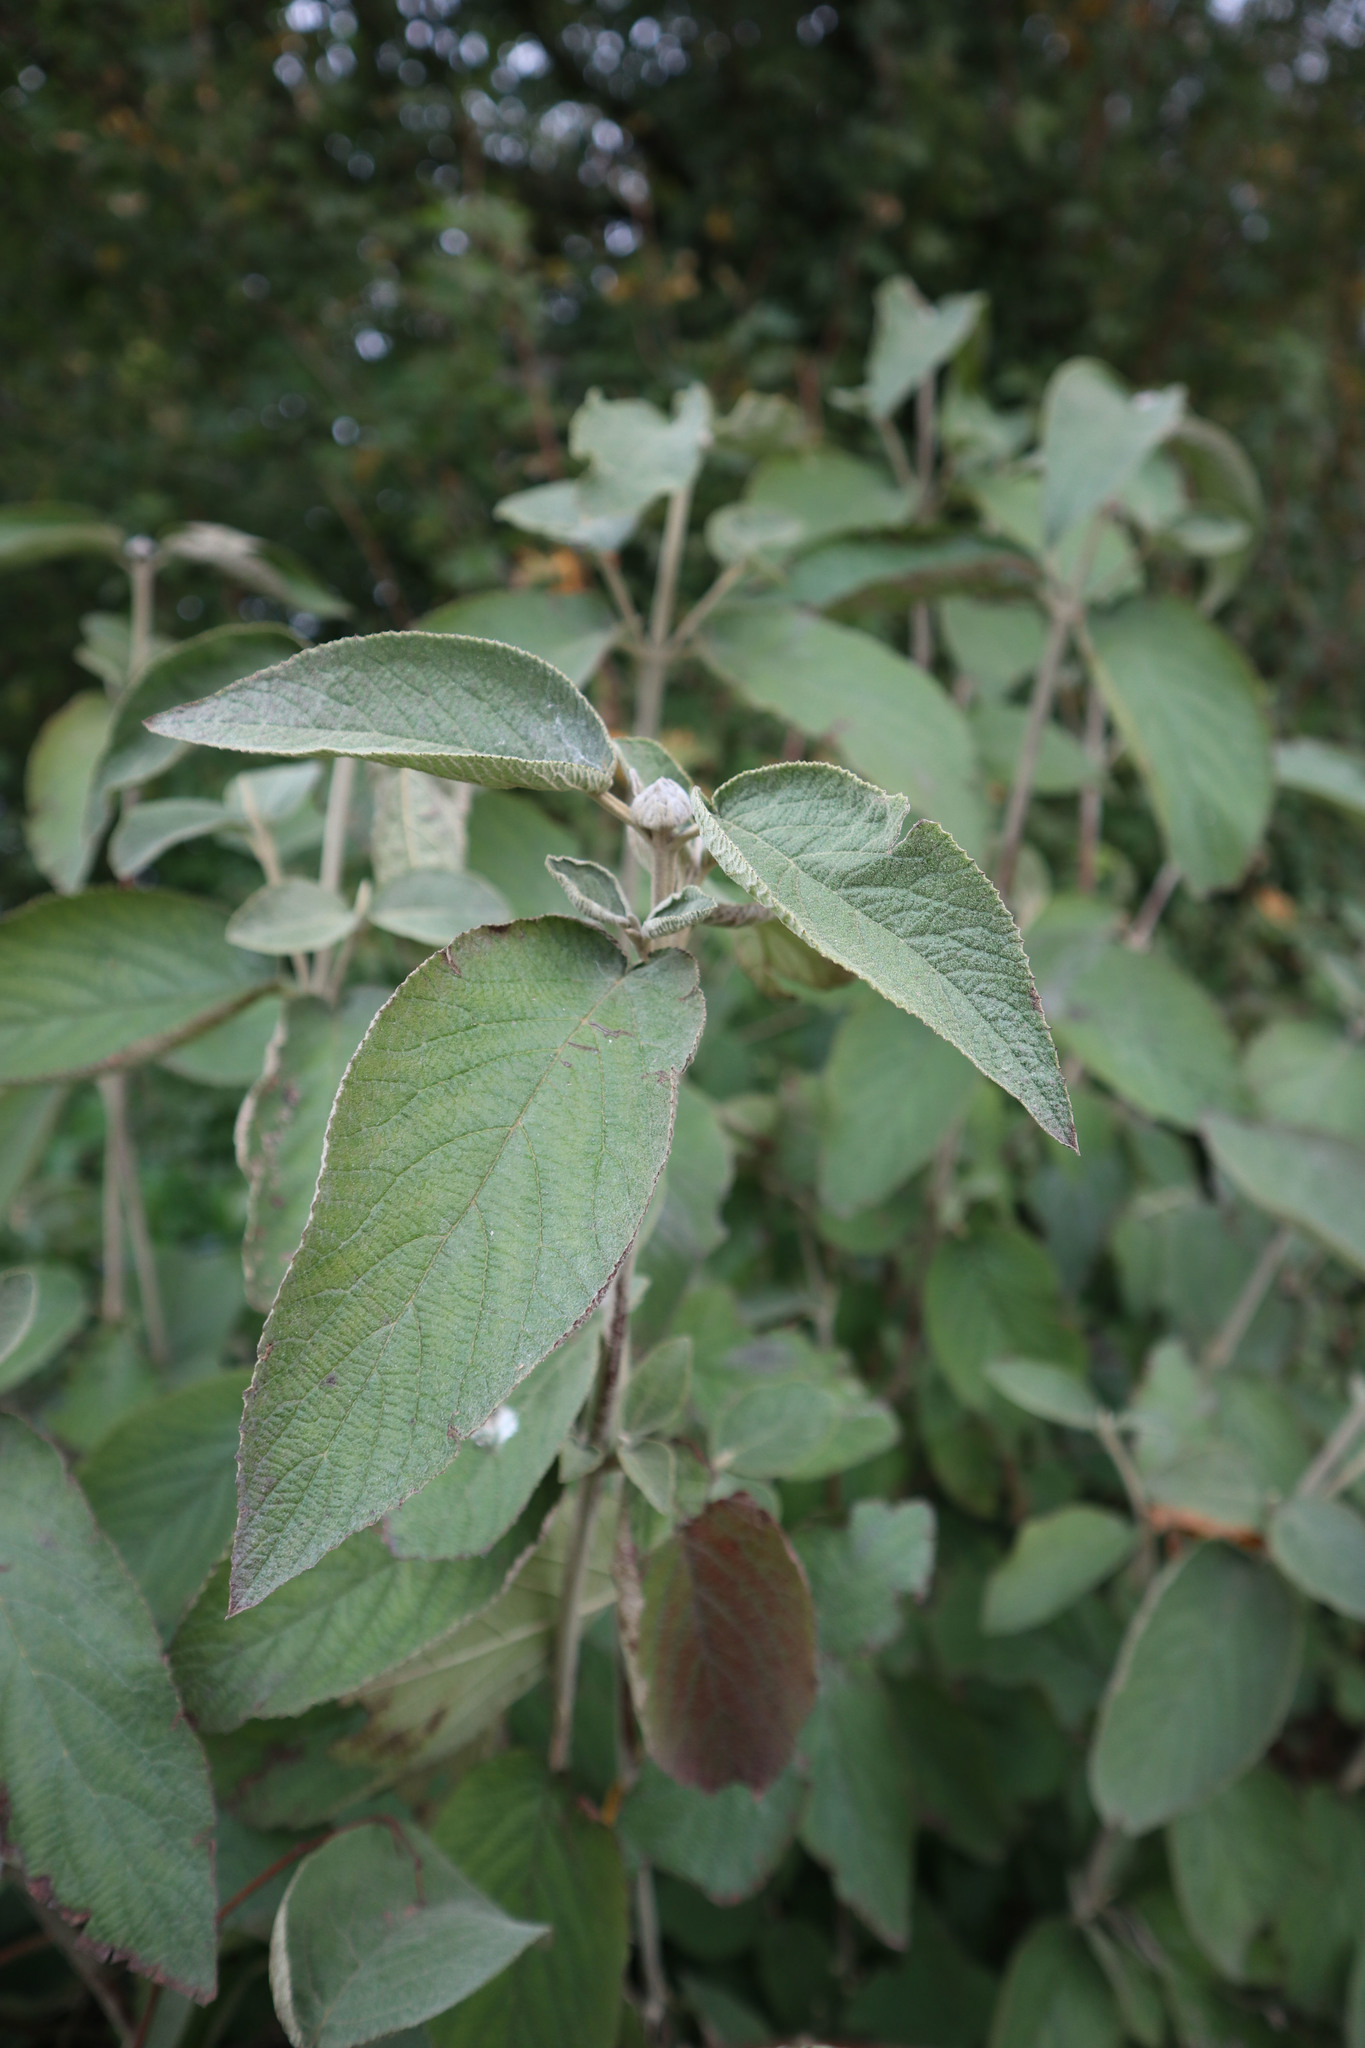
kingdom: Plantae
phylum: Tracheophyta
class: Magnoliopsida
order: Dipsacales
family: Viburnaceae
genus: Viburnum
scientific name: Viburnum lantana
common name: Wayfaring tree
